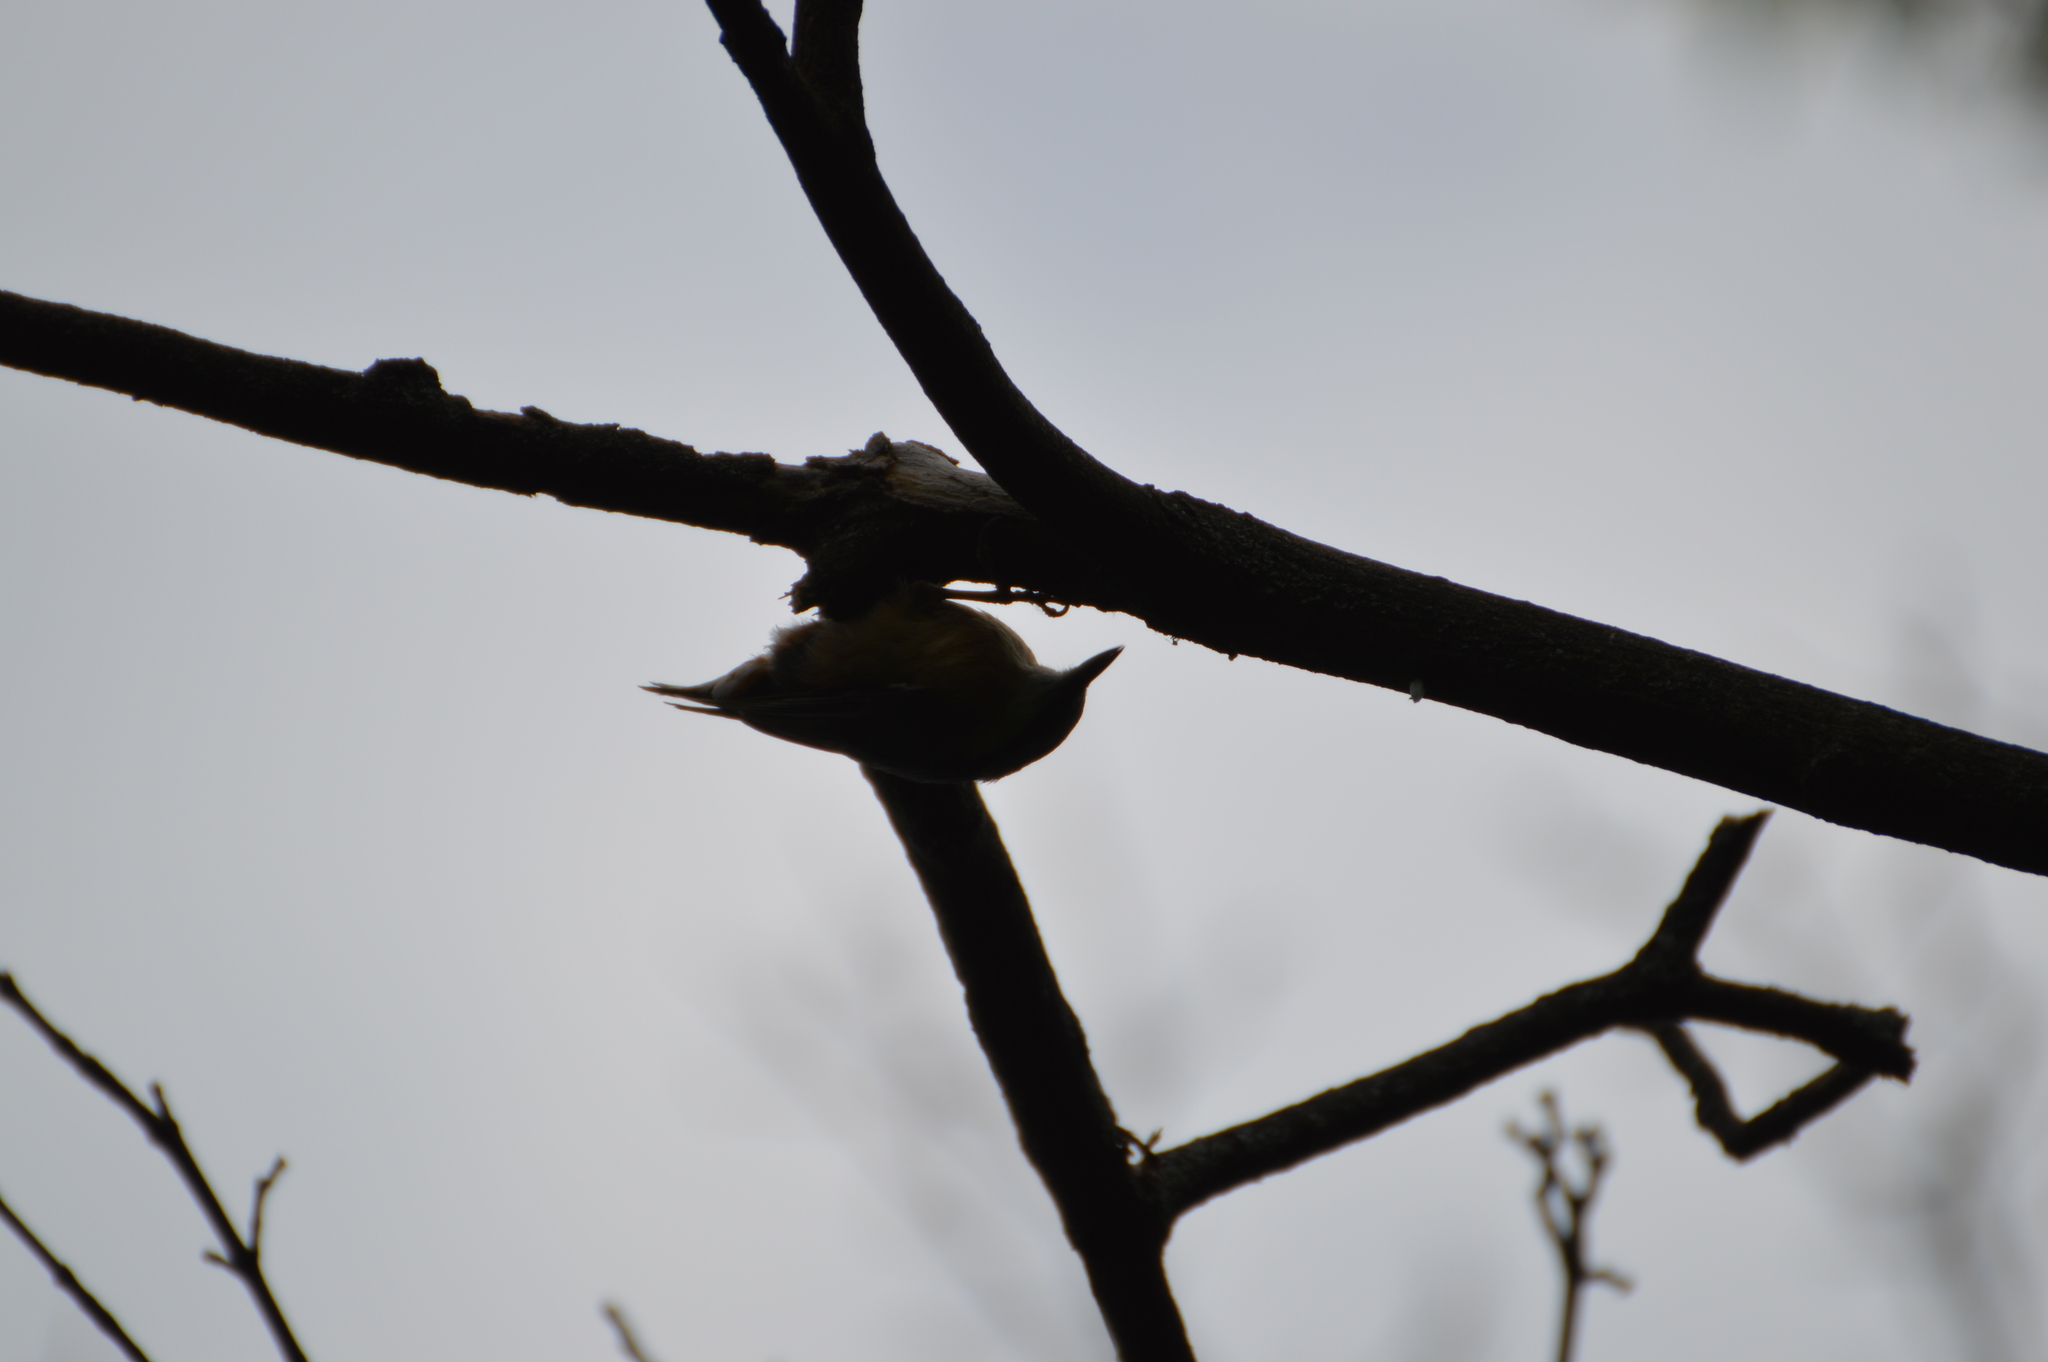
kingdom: Animalia
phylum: Chordata
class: Aves
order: Passeriformes
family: Sittidae
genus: Sitta
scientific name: Sitta europaea
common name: Eurasian nuthatch
